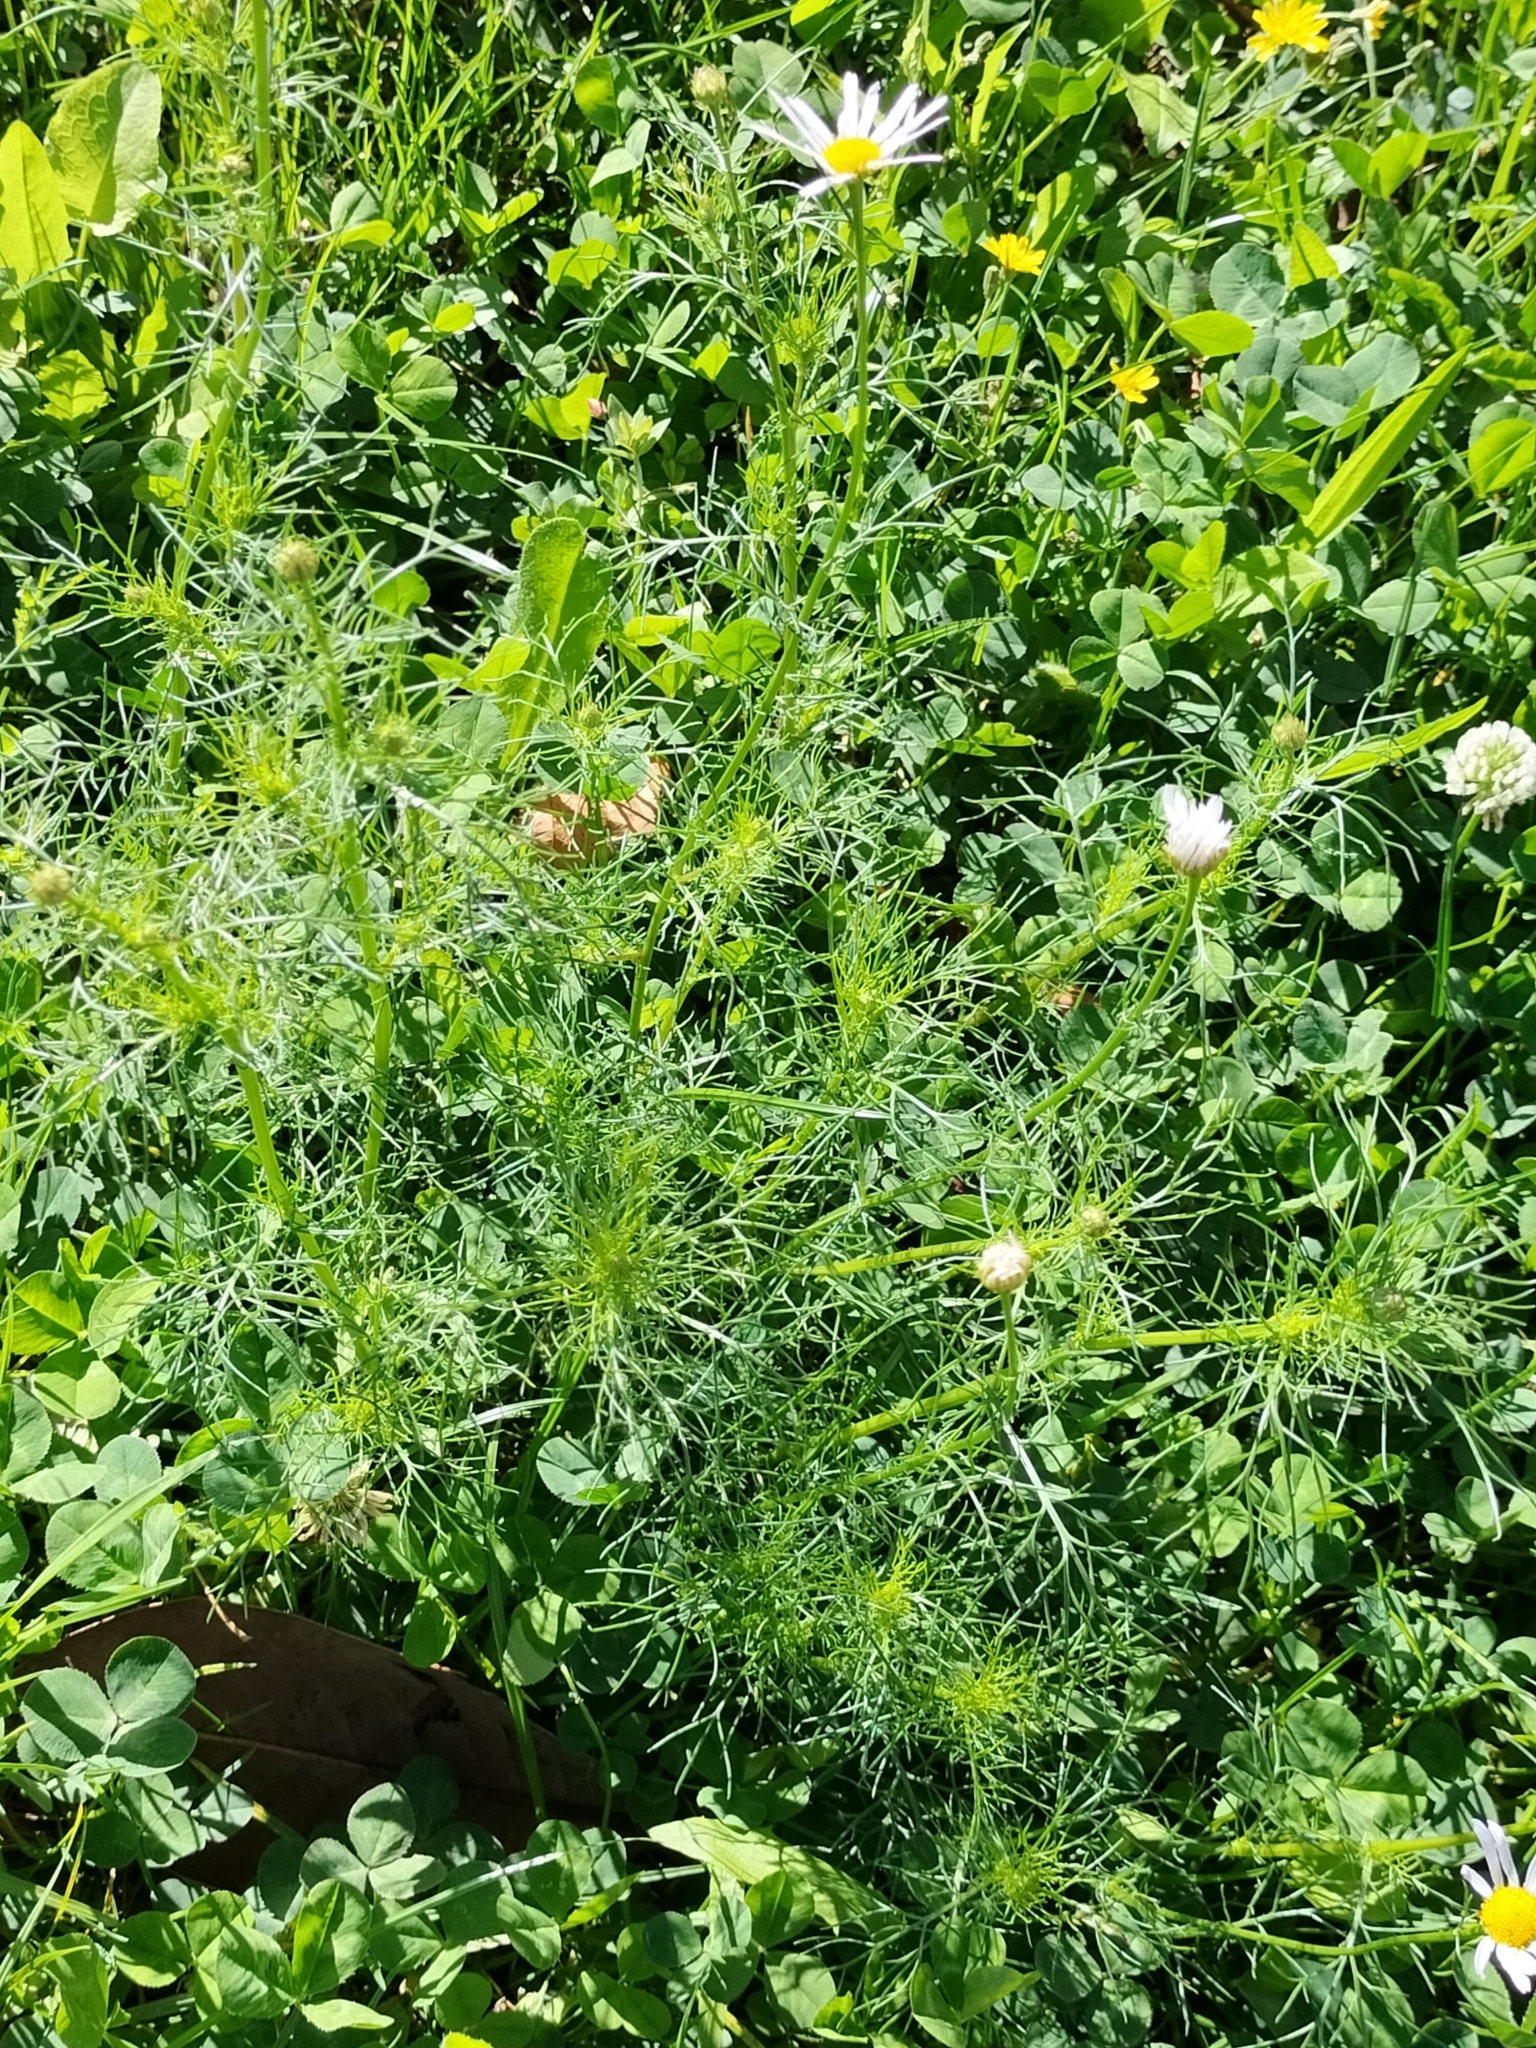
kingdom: Plantae
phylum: Tracheophyta
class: Magnoliopsida
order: Asterales
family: Asteraceae
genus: Tripleurospermum
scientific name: Tripleurospermum inodorum
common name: Scentless mayweed
